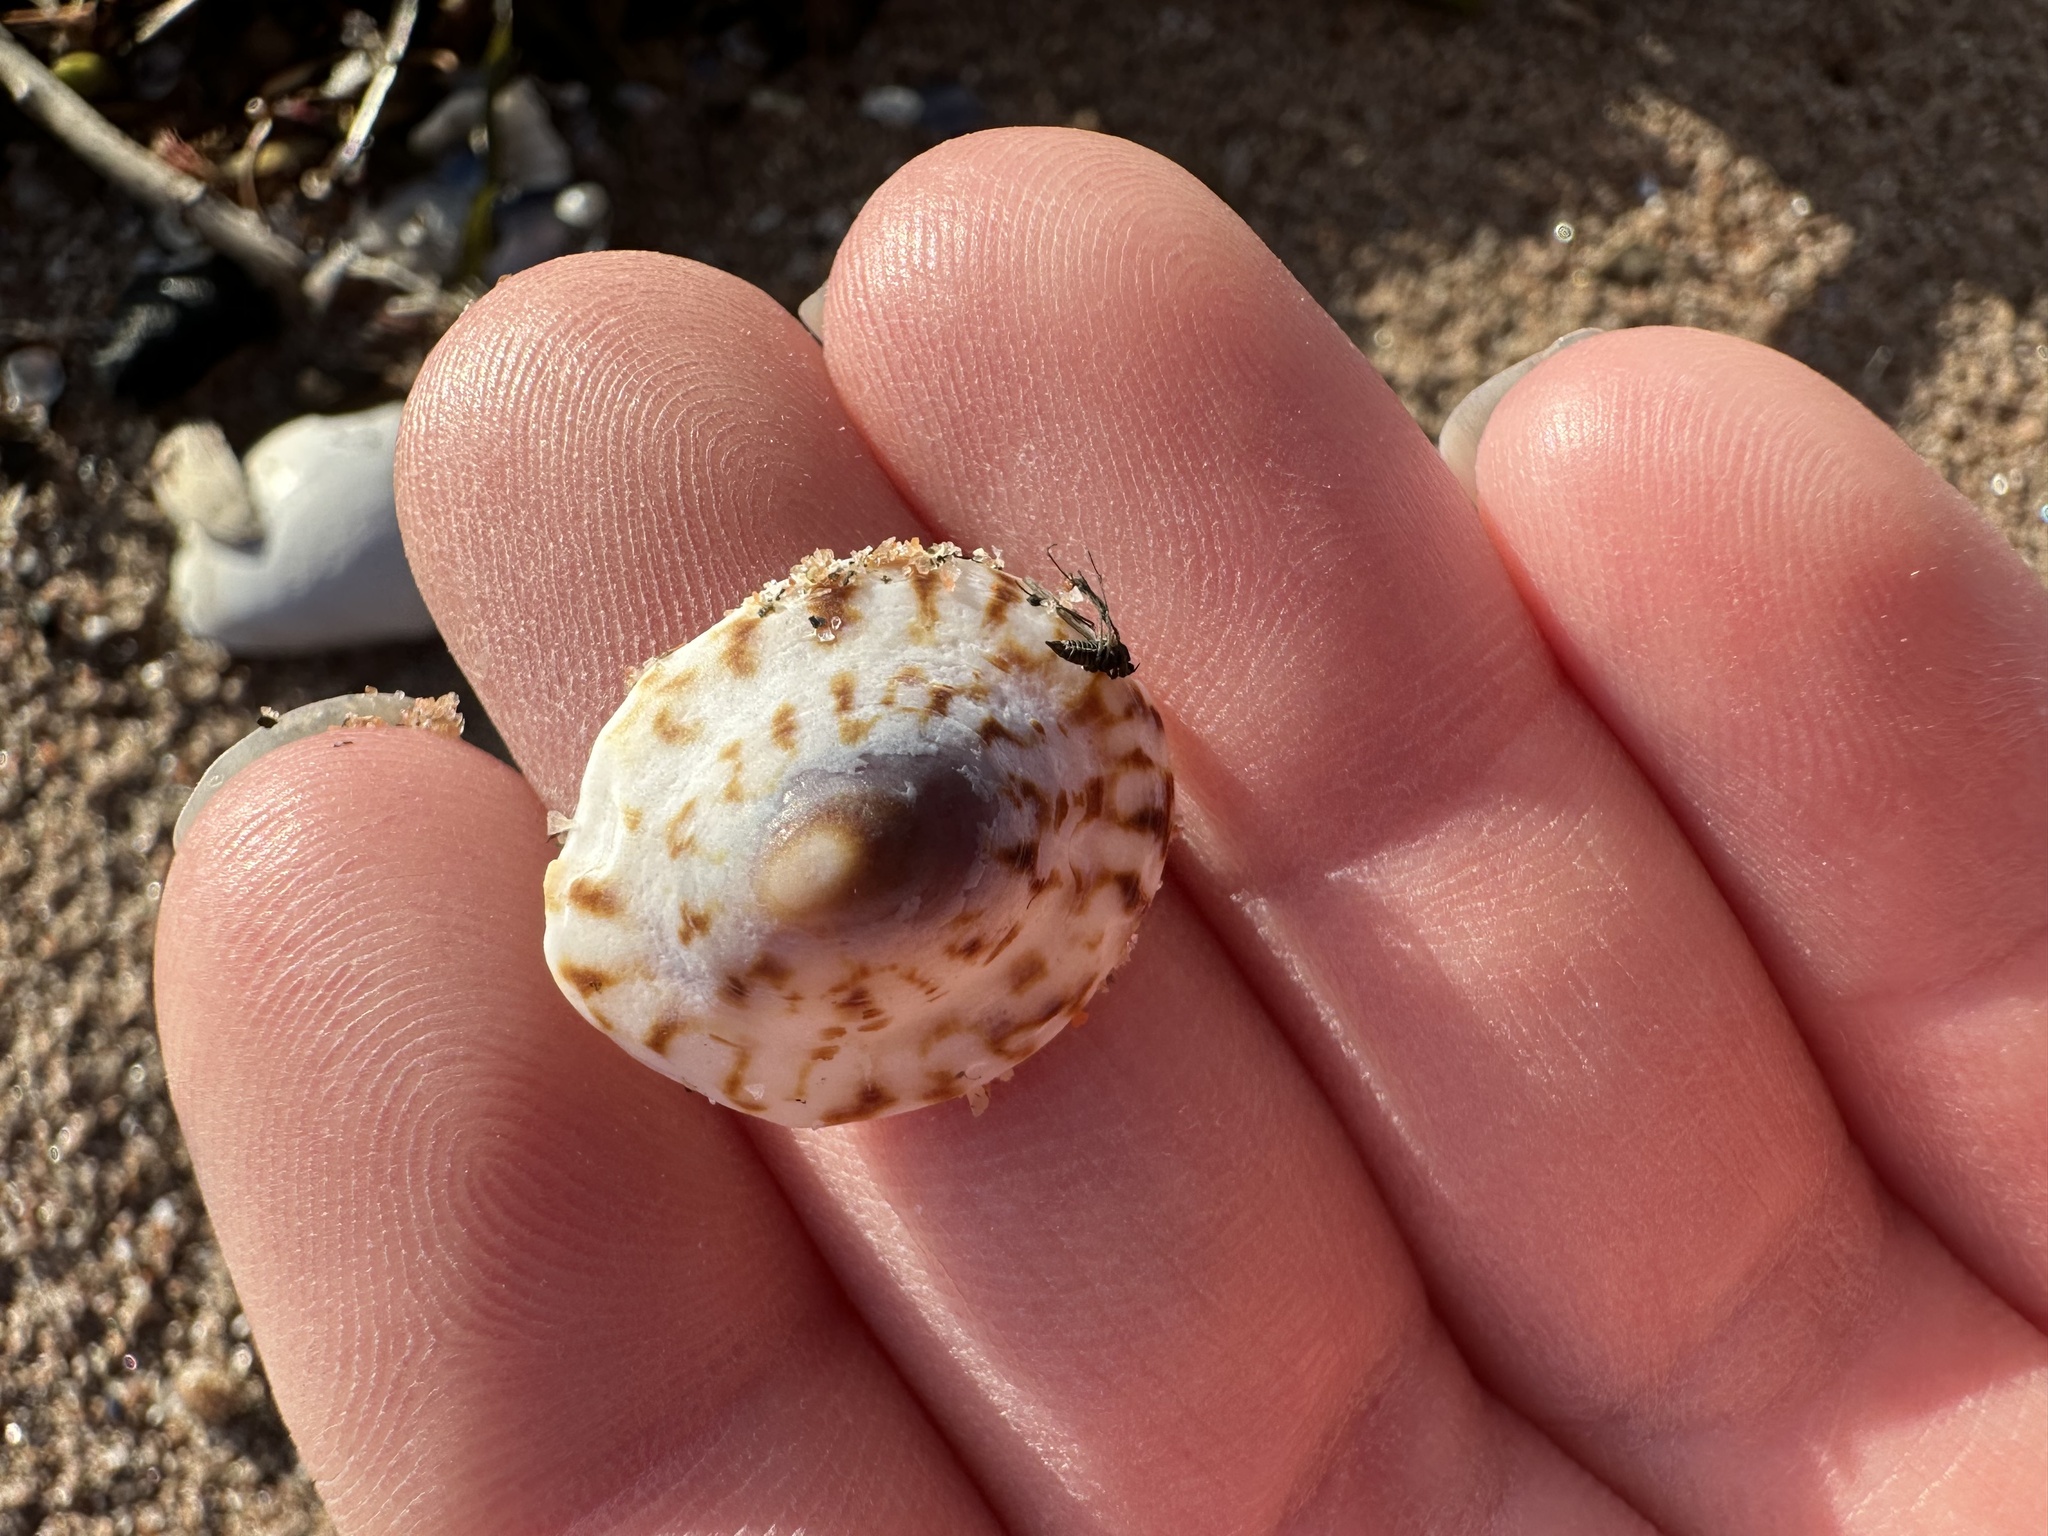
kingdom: Animalia
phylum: Mollusca
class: Gastropoda
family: Lottiidae
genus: Testudinalia
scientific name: Testudinalia testudinalis
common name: Common tortoiseshell limpet
